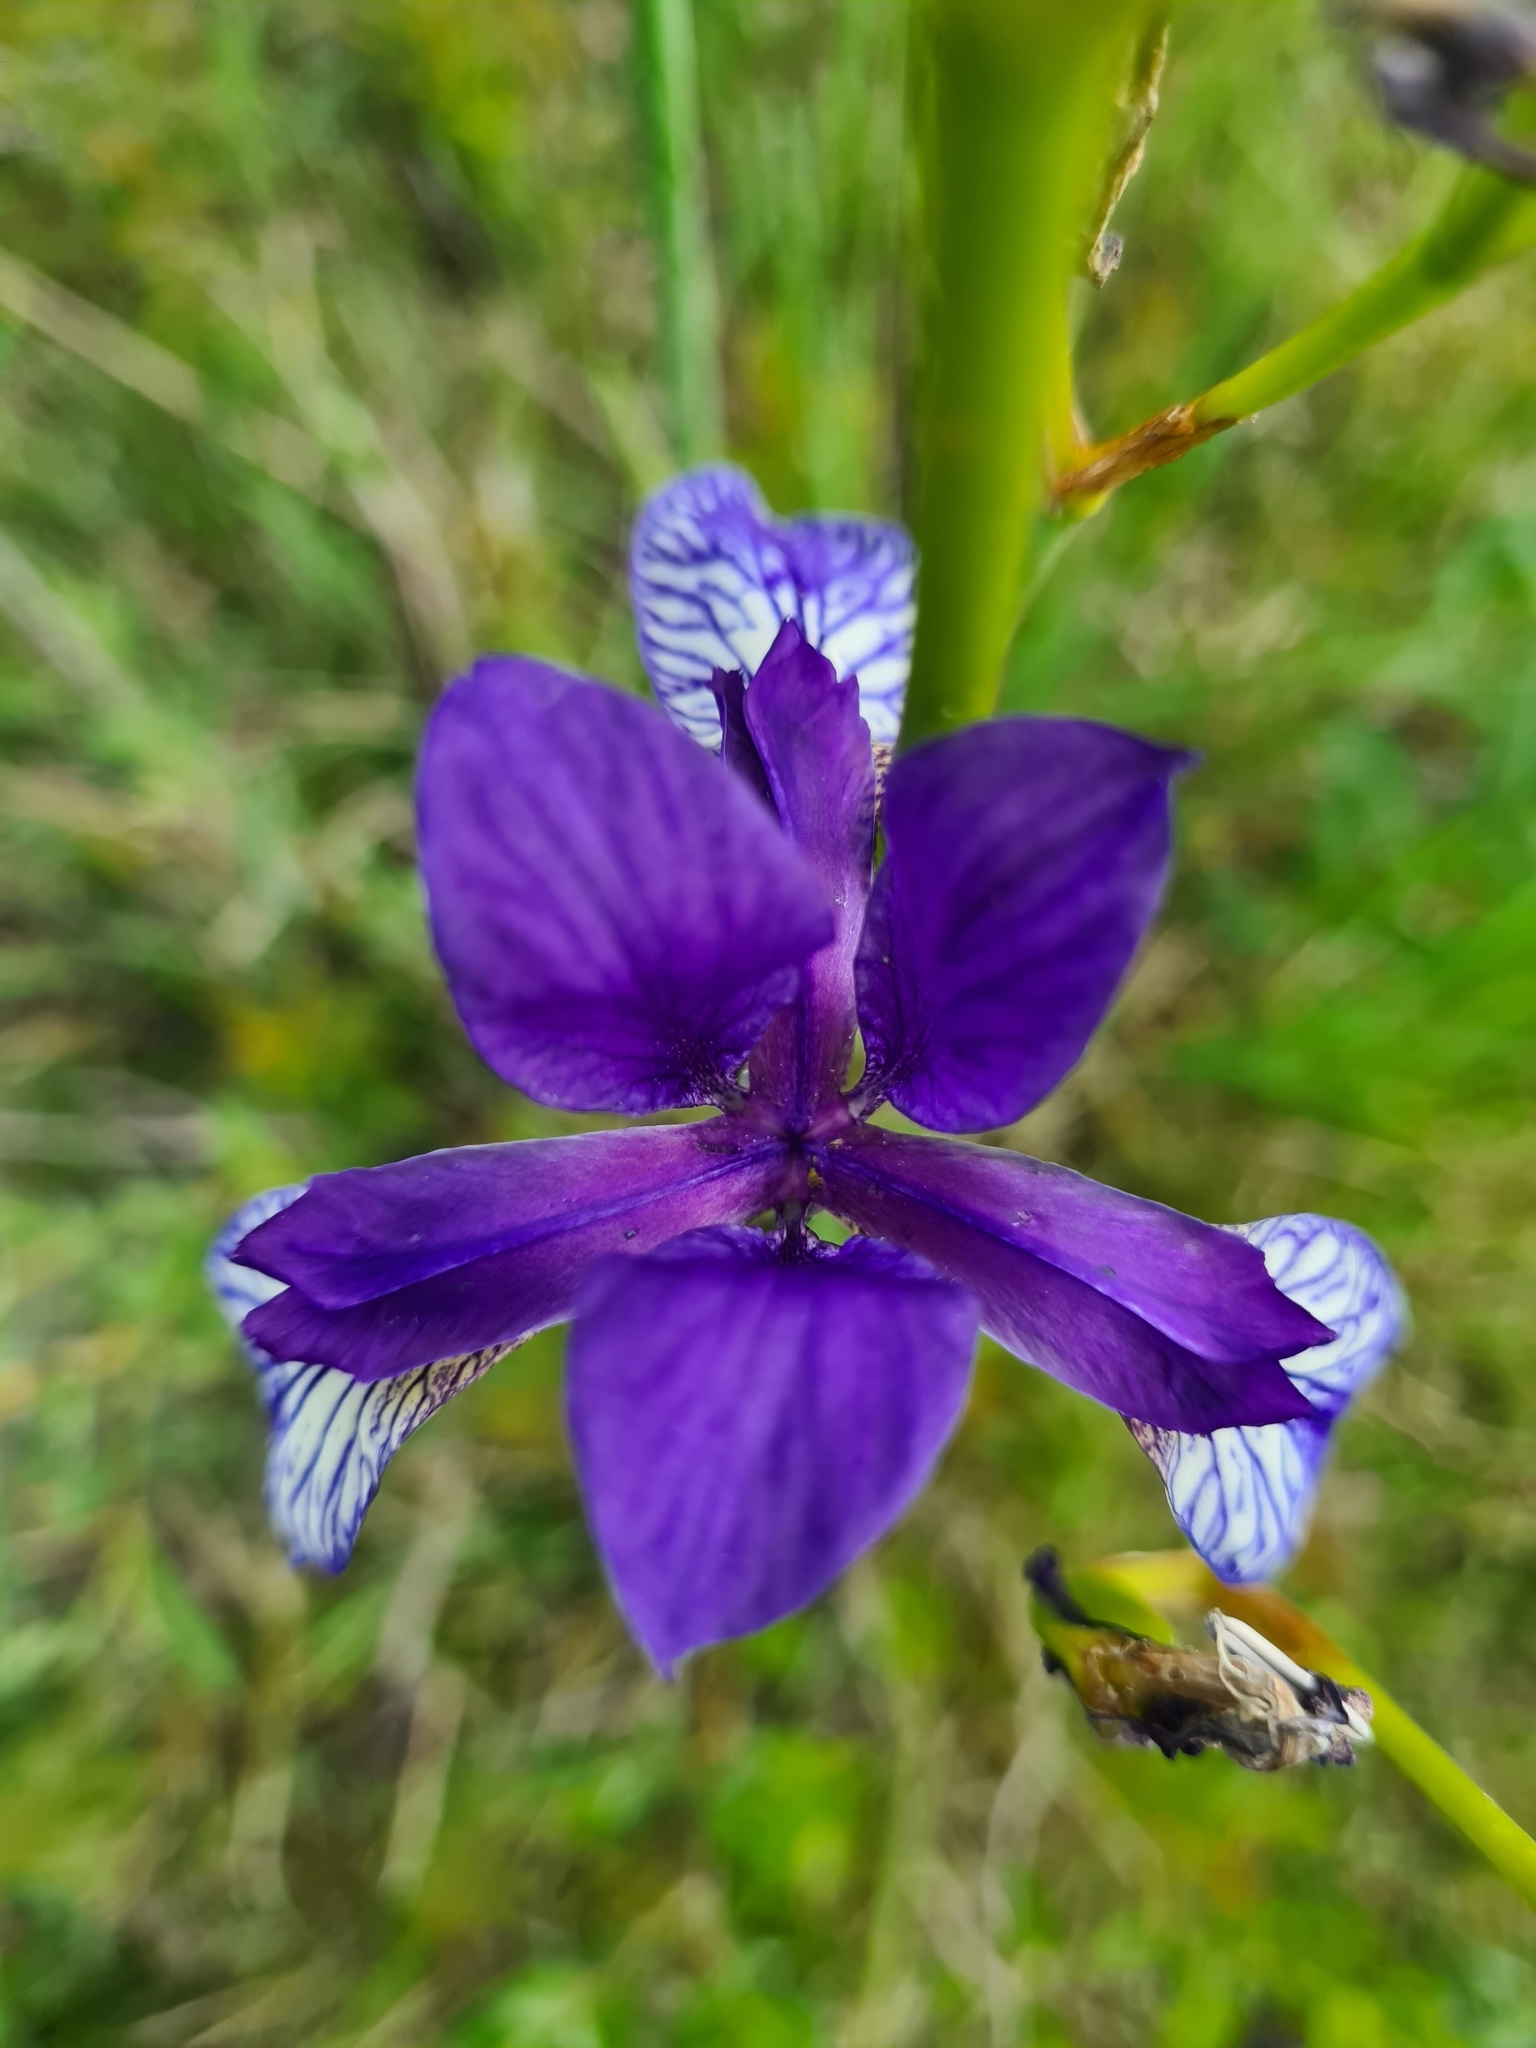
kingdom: Plantae
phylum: Tracheophyta
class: Liliopsida
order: Asparagales
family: Iridaceae
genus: Iris
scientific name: Iris sibirica
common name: Siberian iris
